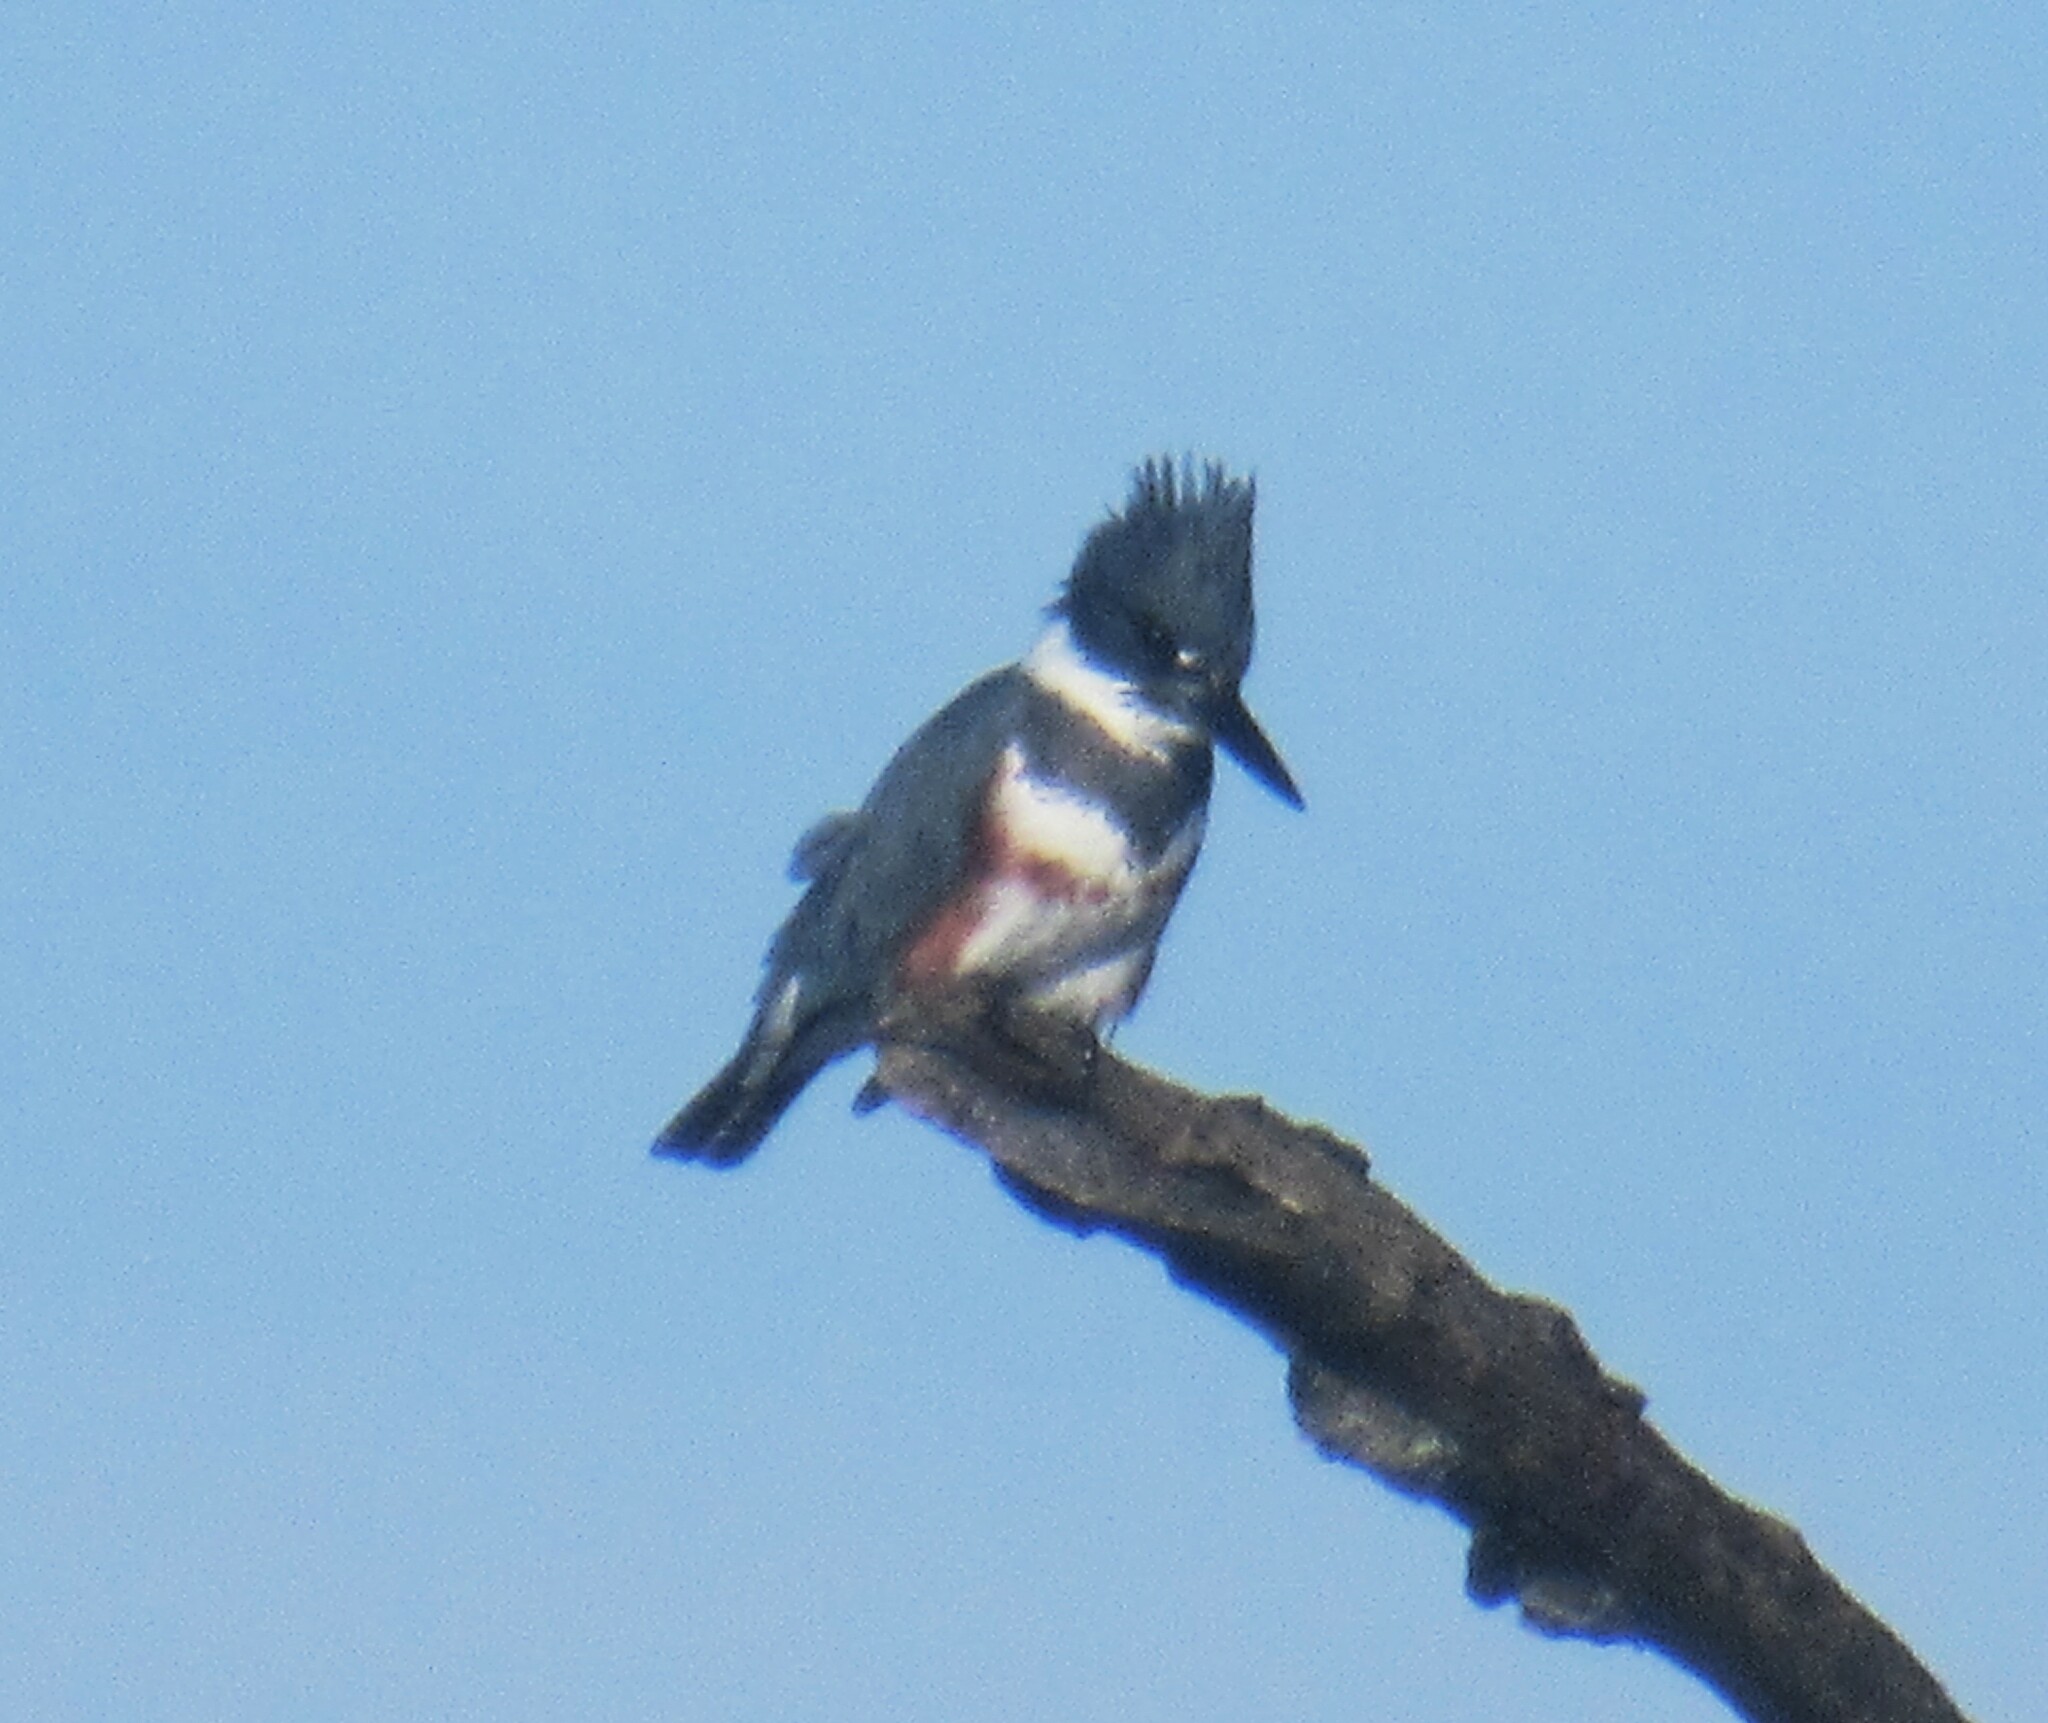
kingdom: Animalia
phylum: Chordata
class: Aves
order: Coraciiformes
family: Alcedinidae
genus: Megaceryle
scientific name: Megaceryle alcyon
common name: Belted kingfisher
